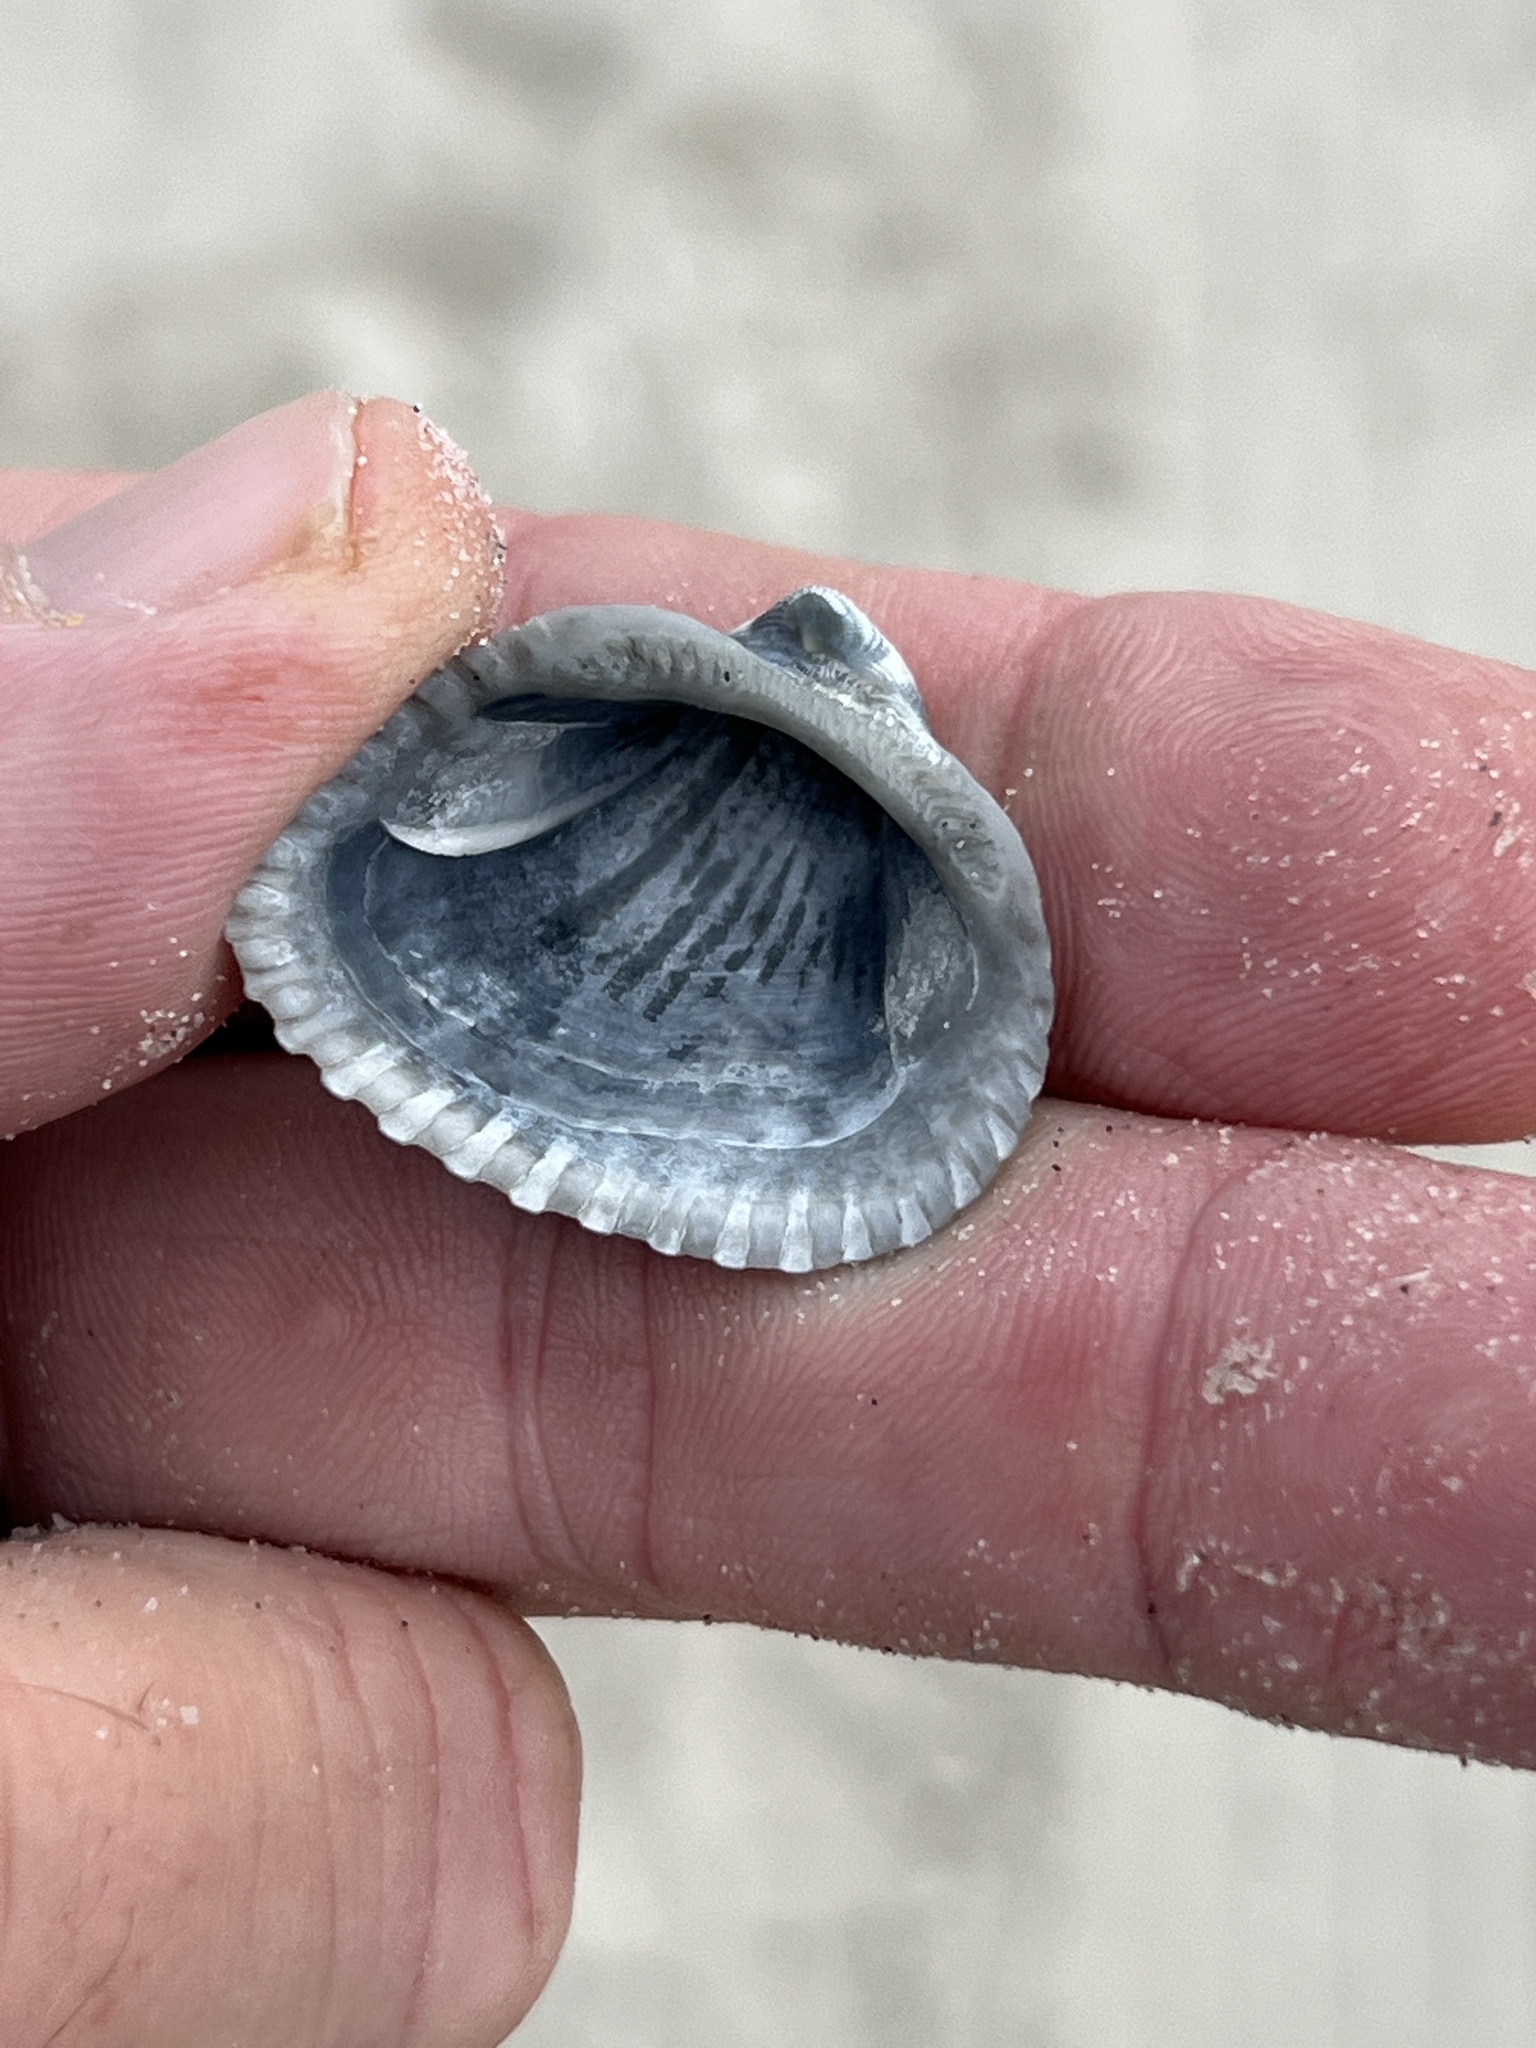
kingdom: Animalia
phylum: Mollusca
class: Bivalvia
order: Arcida
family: Noetiidae
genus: Noetia
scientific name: Noetia ponderosa
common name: Ponderous ark
